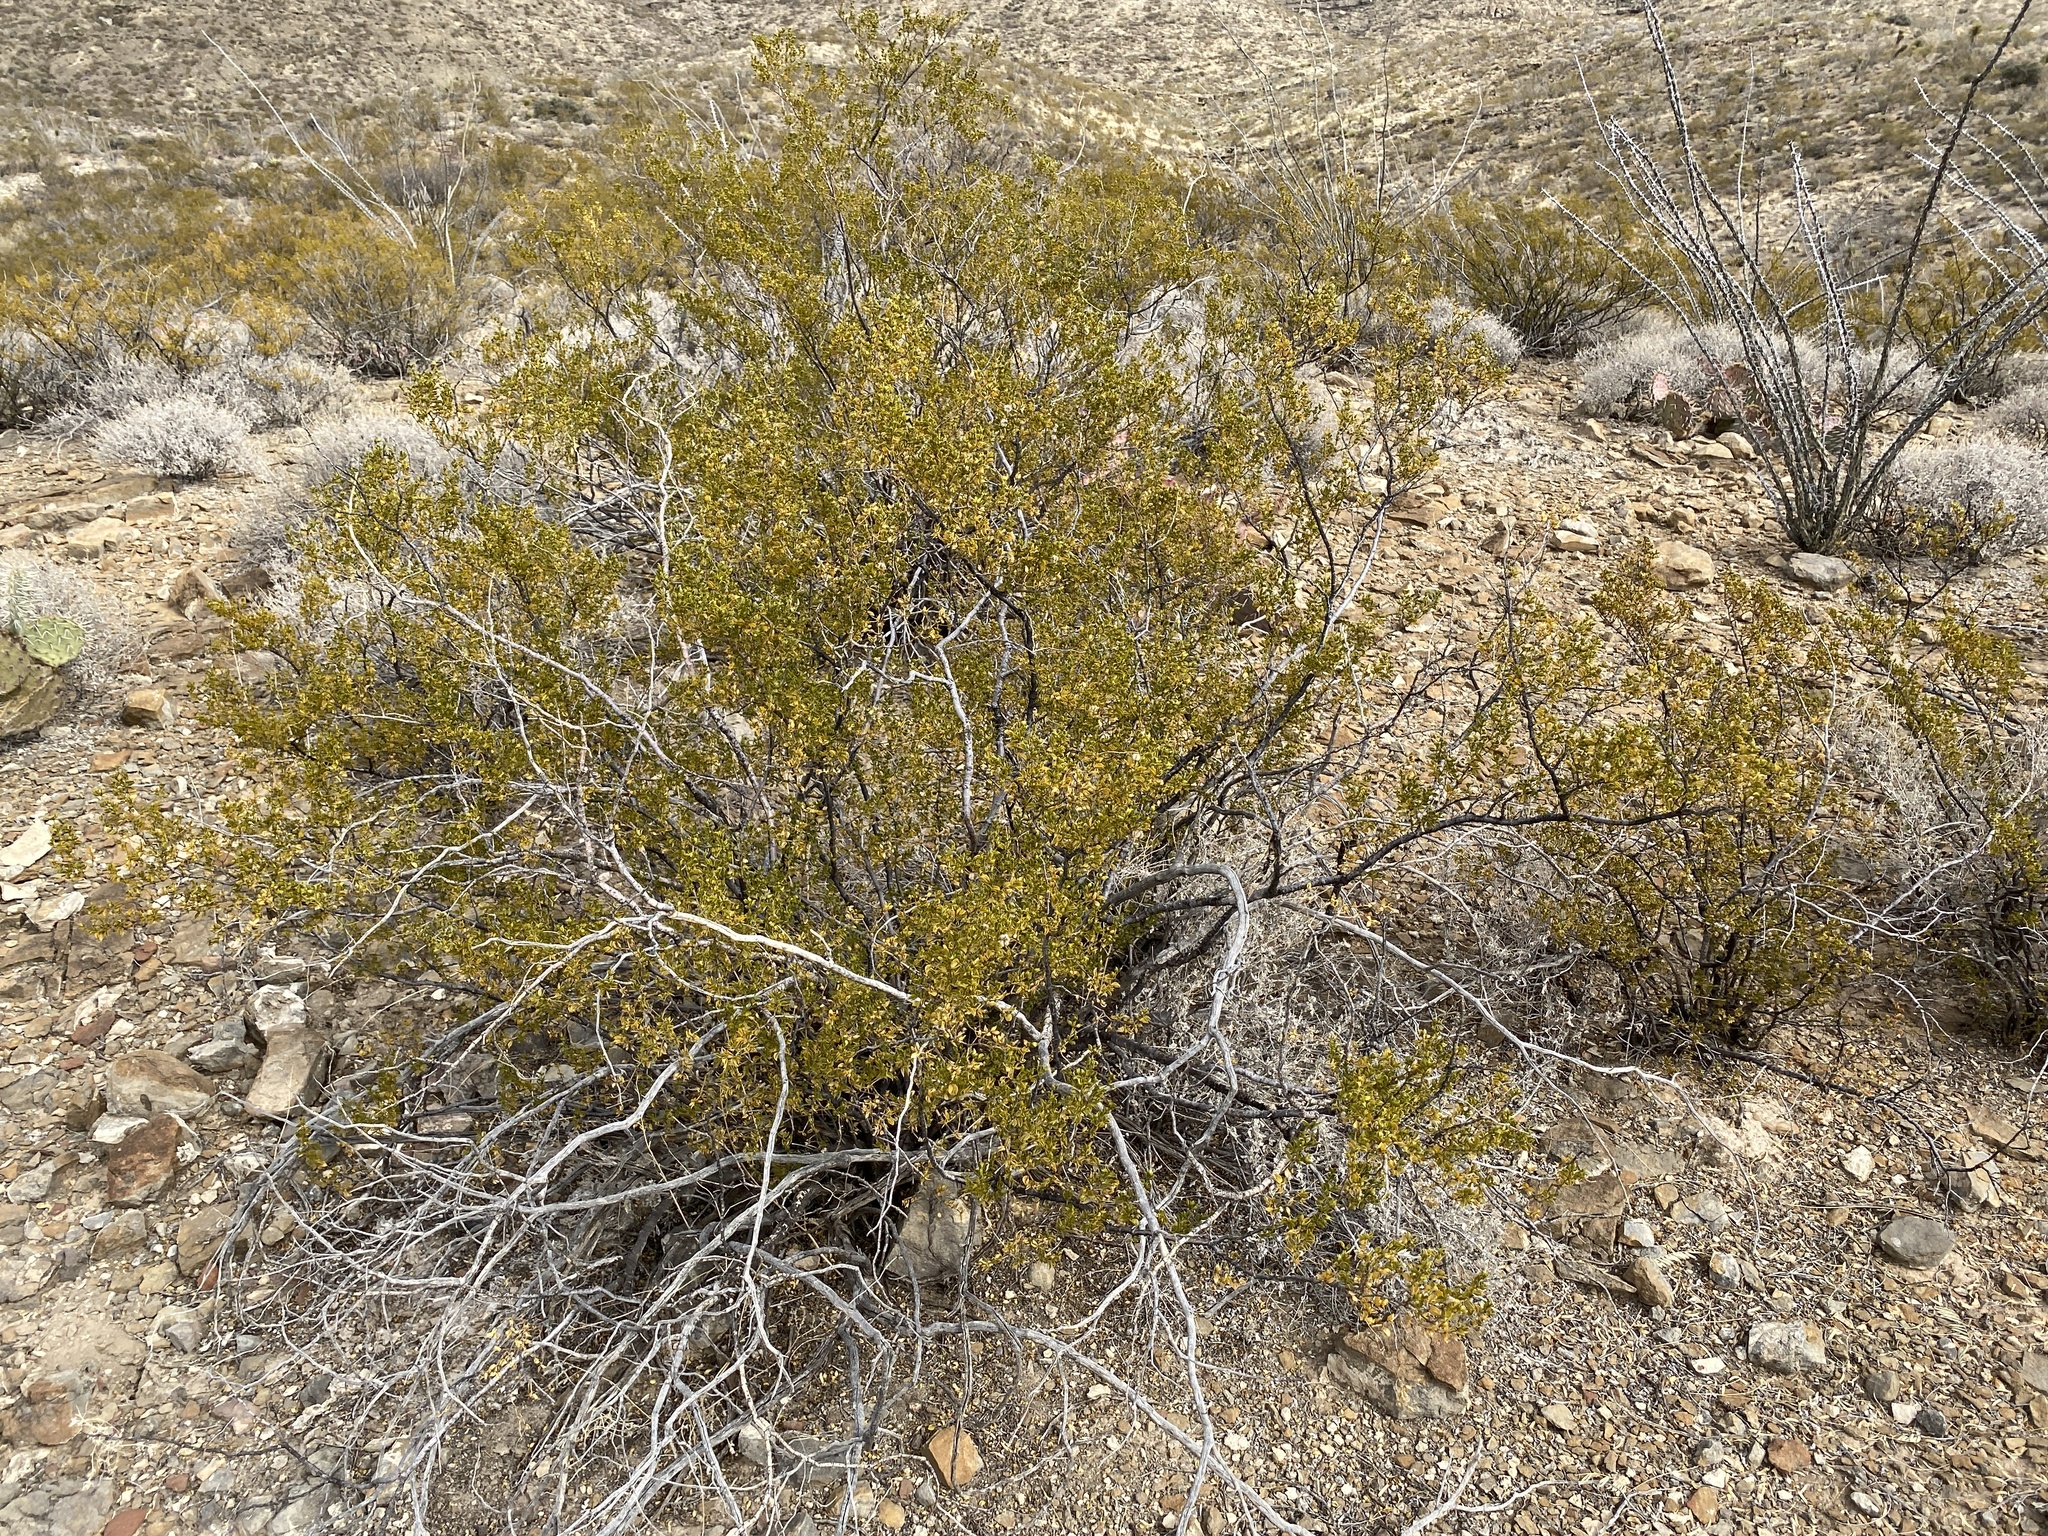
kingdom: Plantae
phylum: Tracheophyta
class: Magnoliopsida
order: Zygophyllales
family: Zygophyllaceae
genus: Larrea
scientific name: Larrea tridentata
